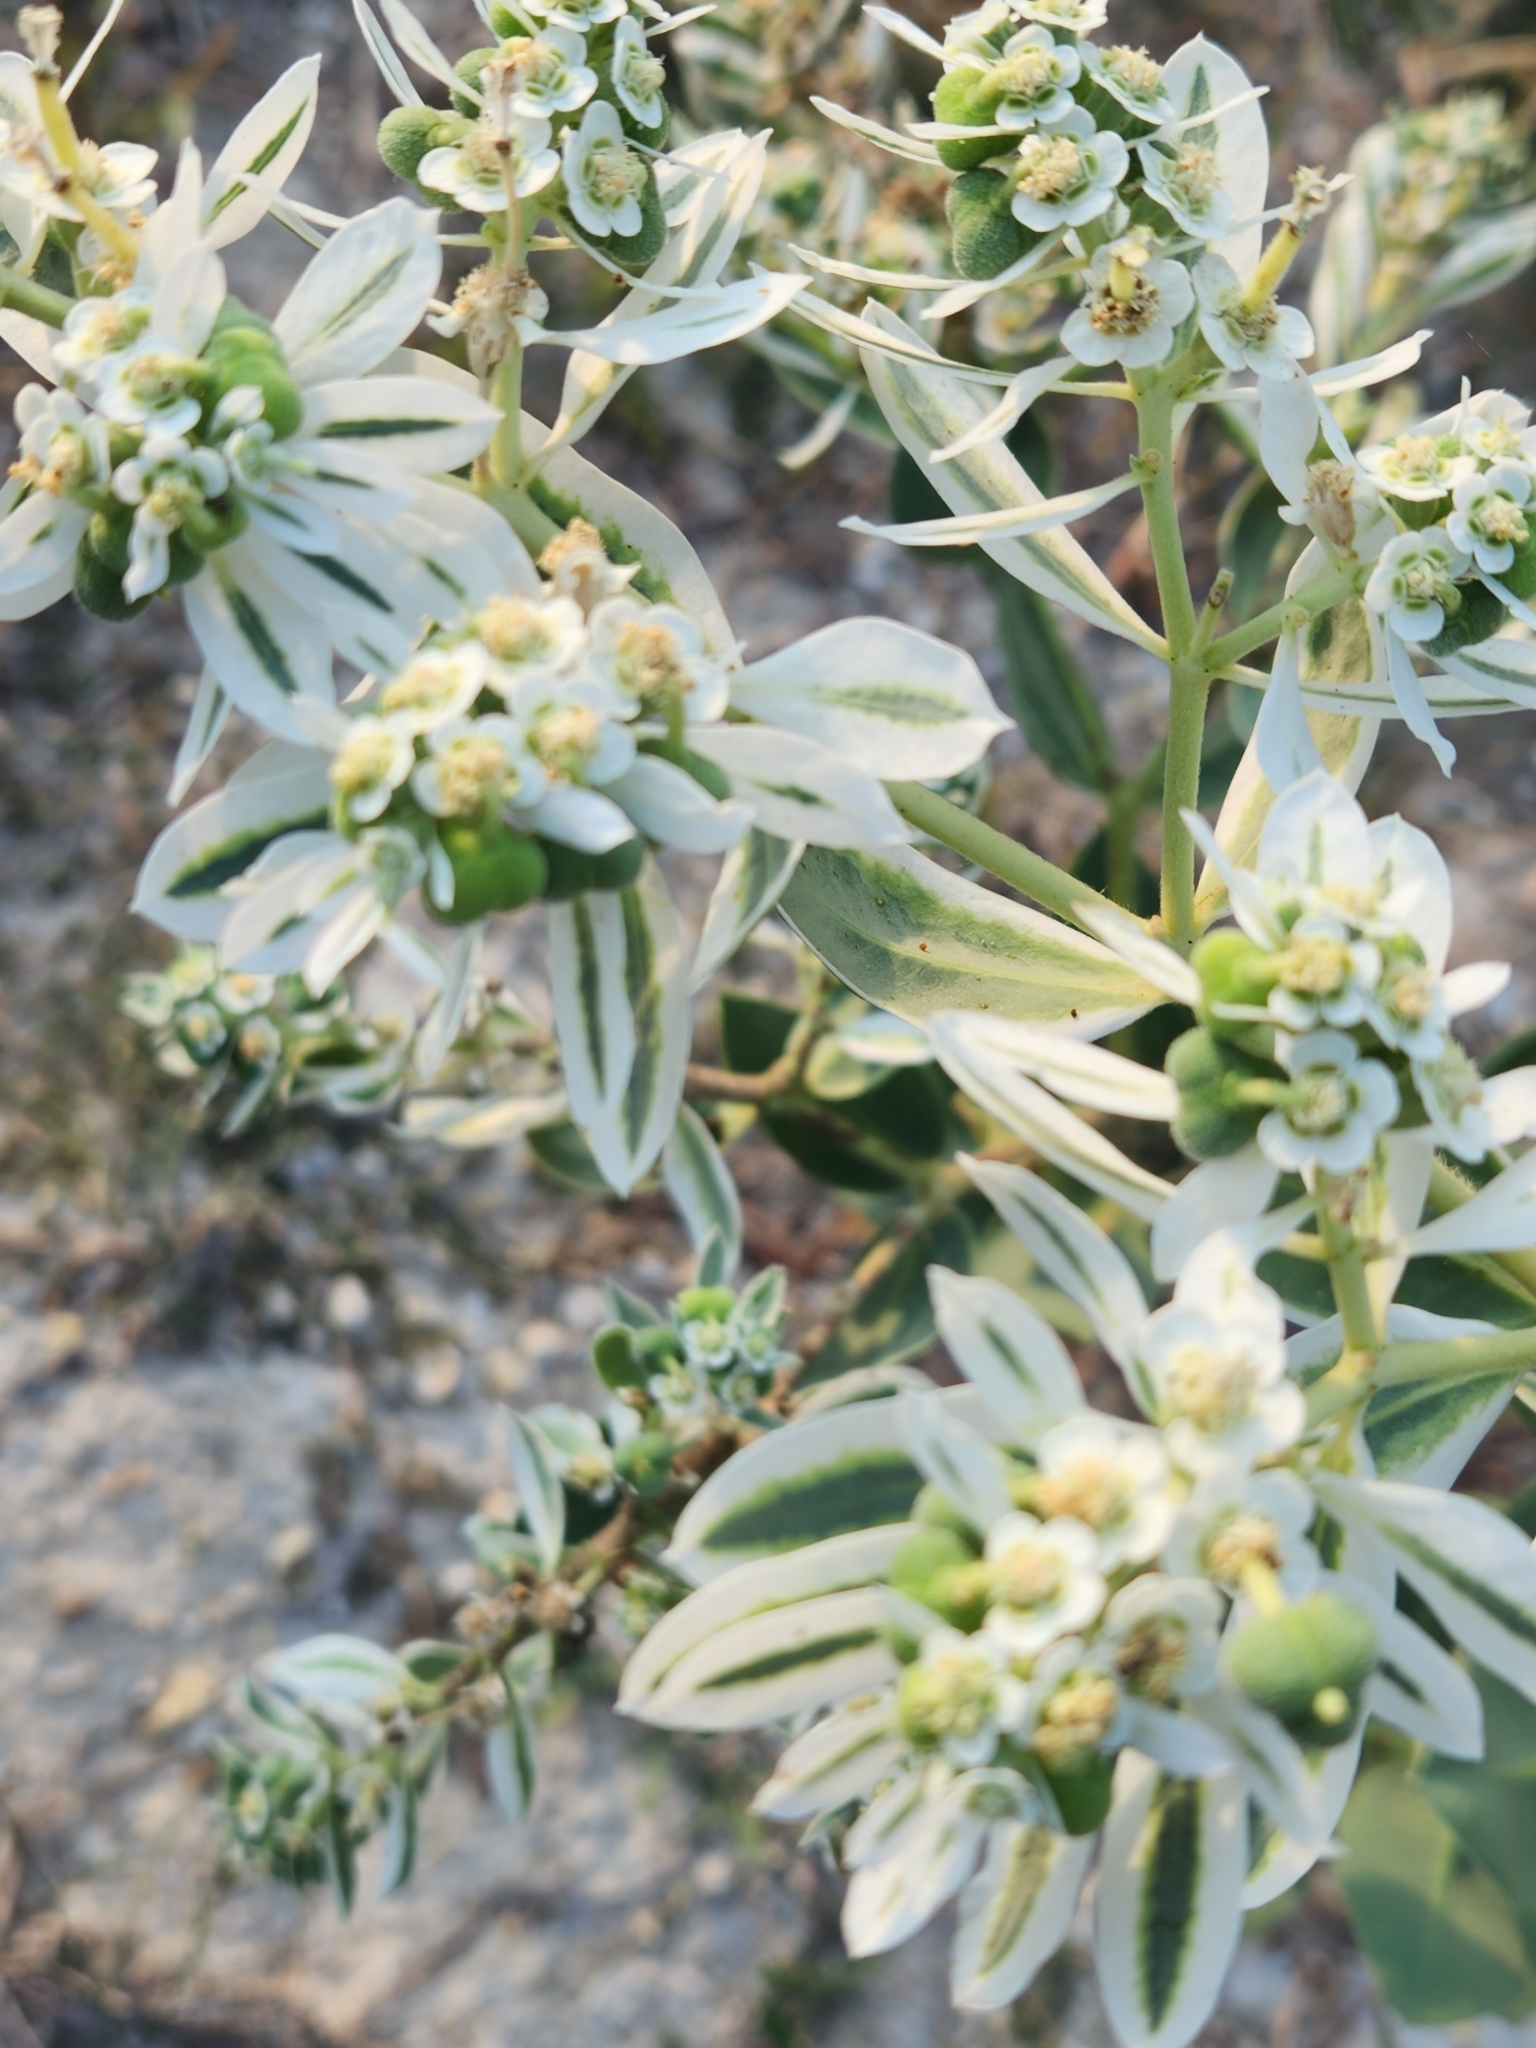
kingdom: Plantae
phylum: Tracheophyta
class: Magnoliopsida
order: Malpighiales
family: Euphorbiaceae
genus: Euphorbia
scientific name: Euphorbia marginata
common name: Ghostweed
